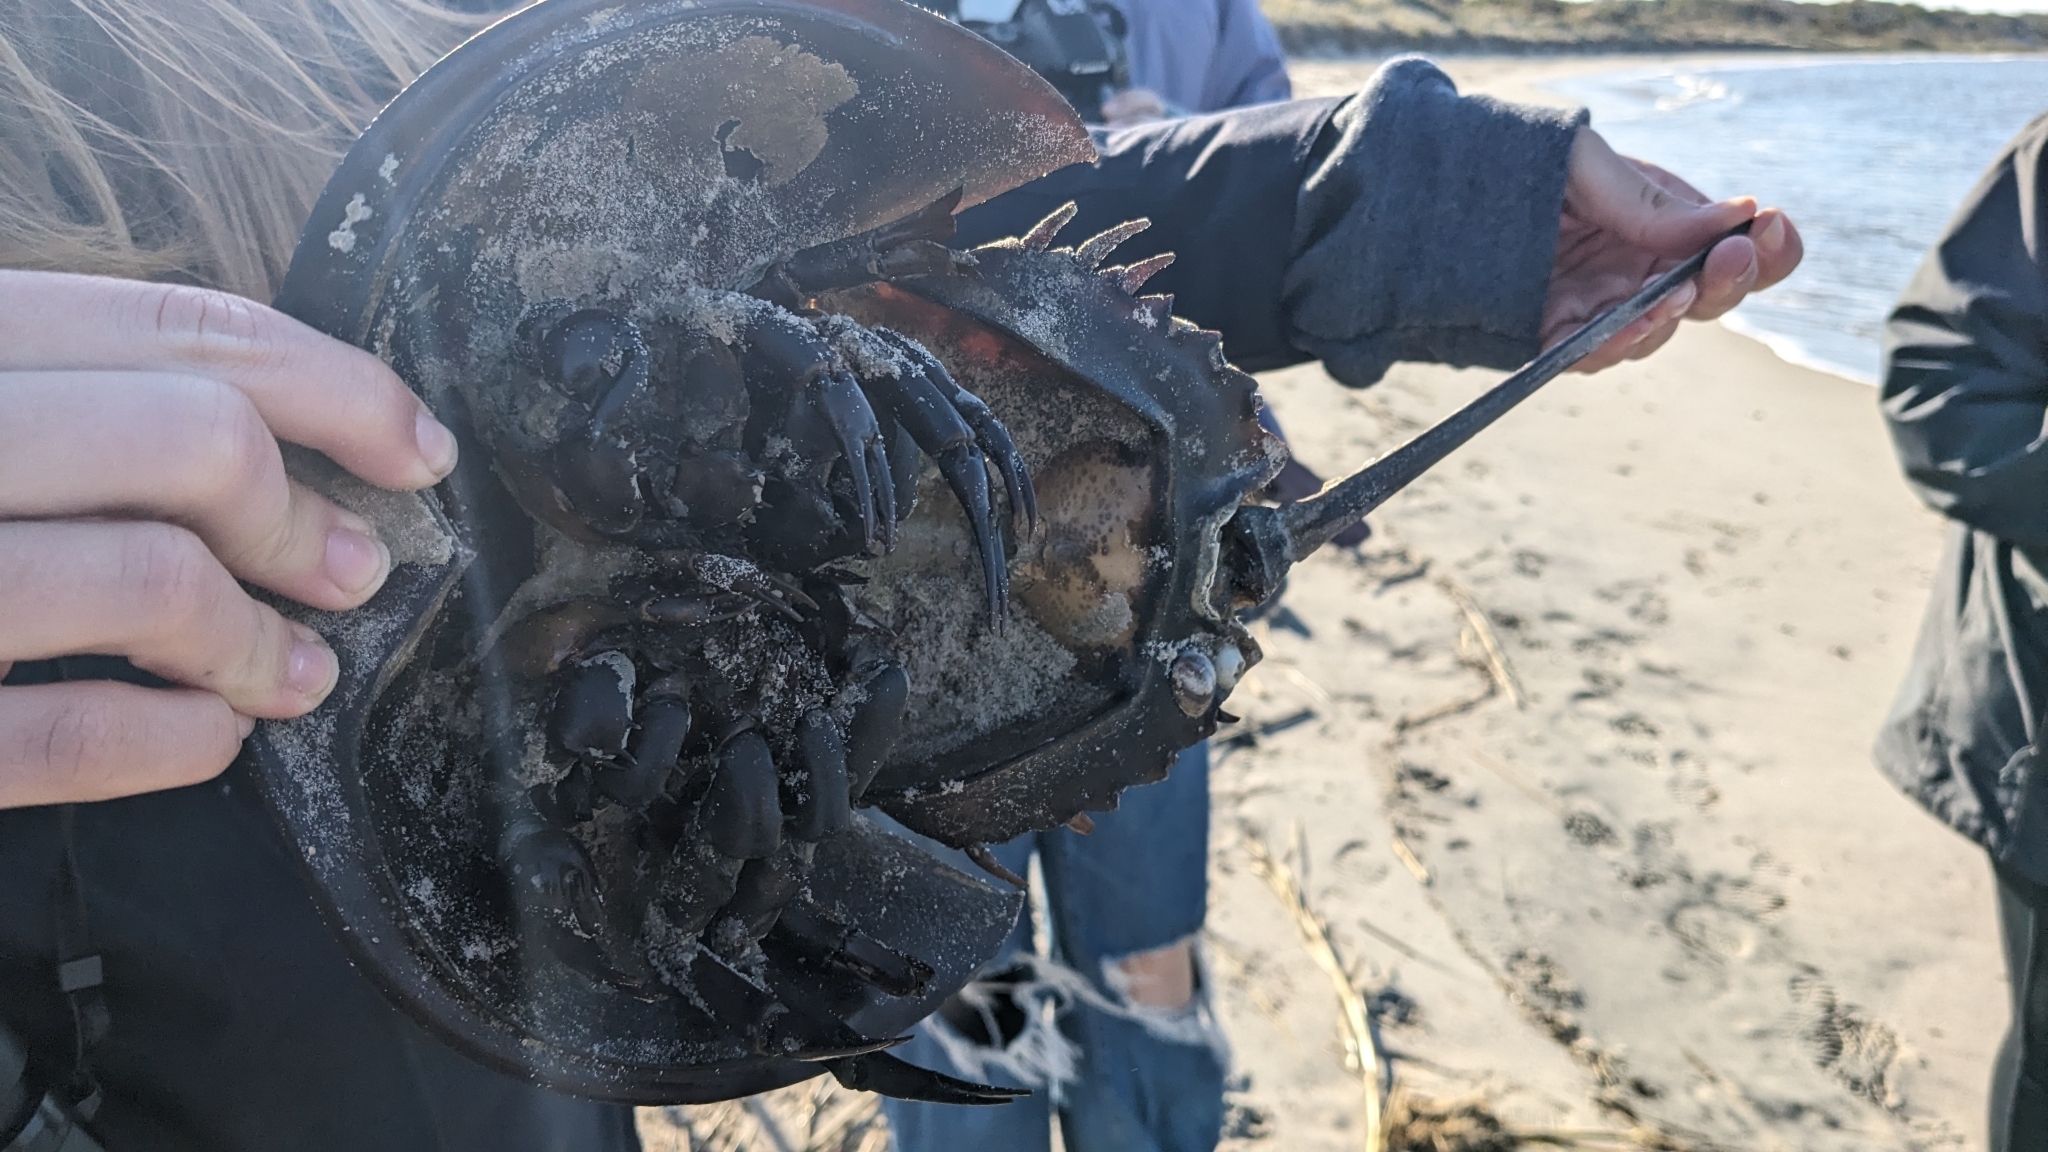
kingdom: Animalia
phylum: Arthropoda
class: Merostomata
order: Xiphosurida
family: Limulidae
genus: Limulus
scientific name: Limulus polyphemus
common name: Horseshoe crab
